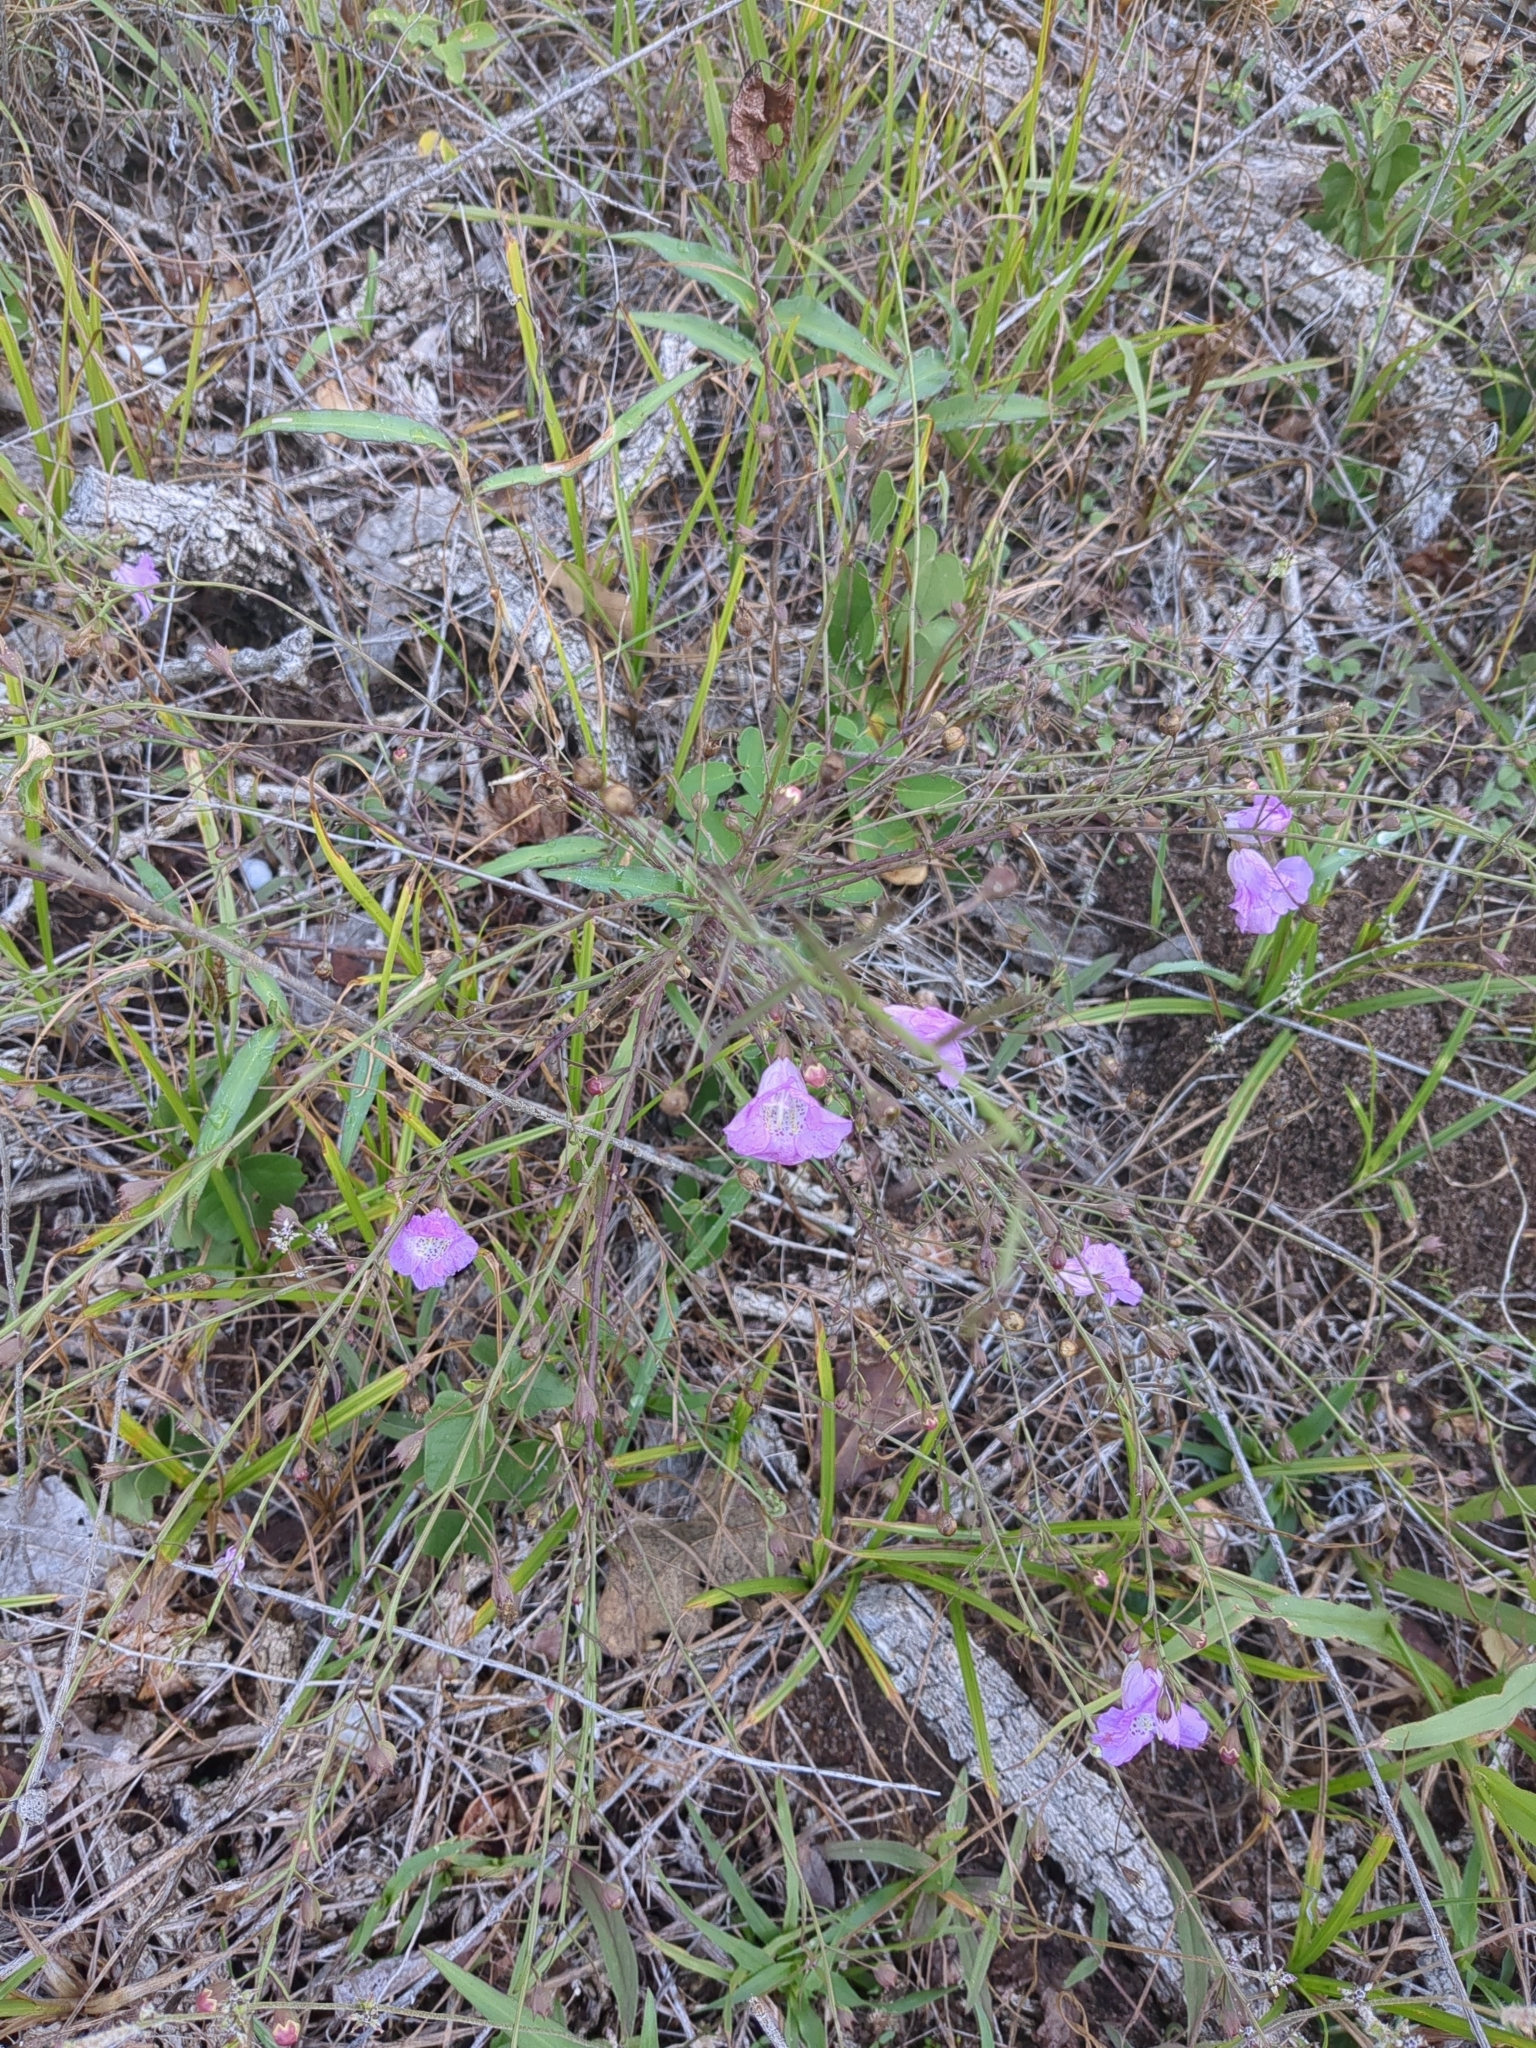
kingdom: Plantae
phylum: Tracheophyta
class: Magnoliopsida
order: Lamiales
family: Orobanchaceae
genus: Agalinis
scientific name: Agalinis strictifolia
